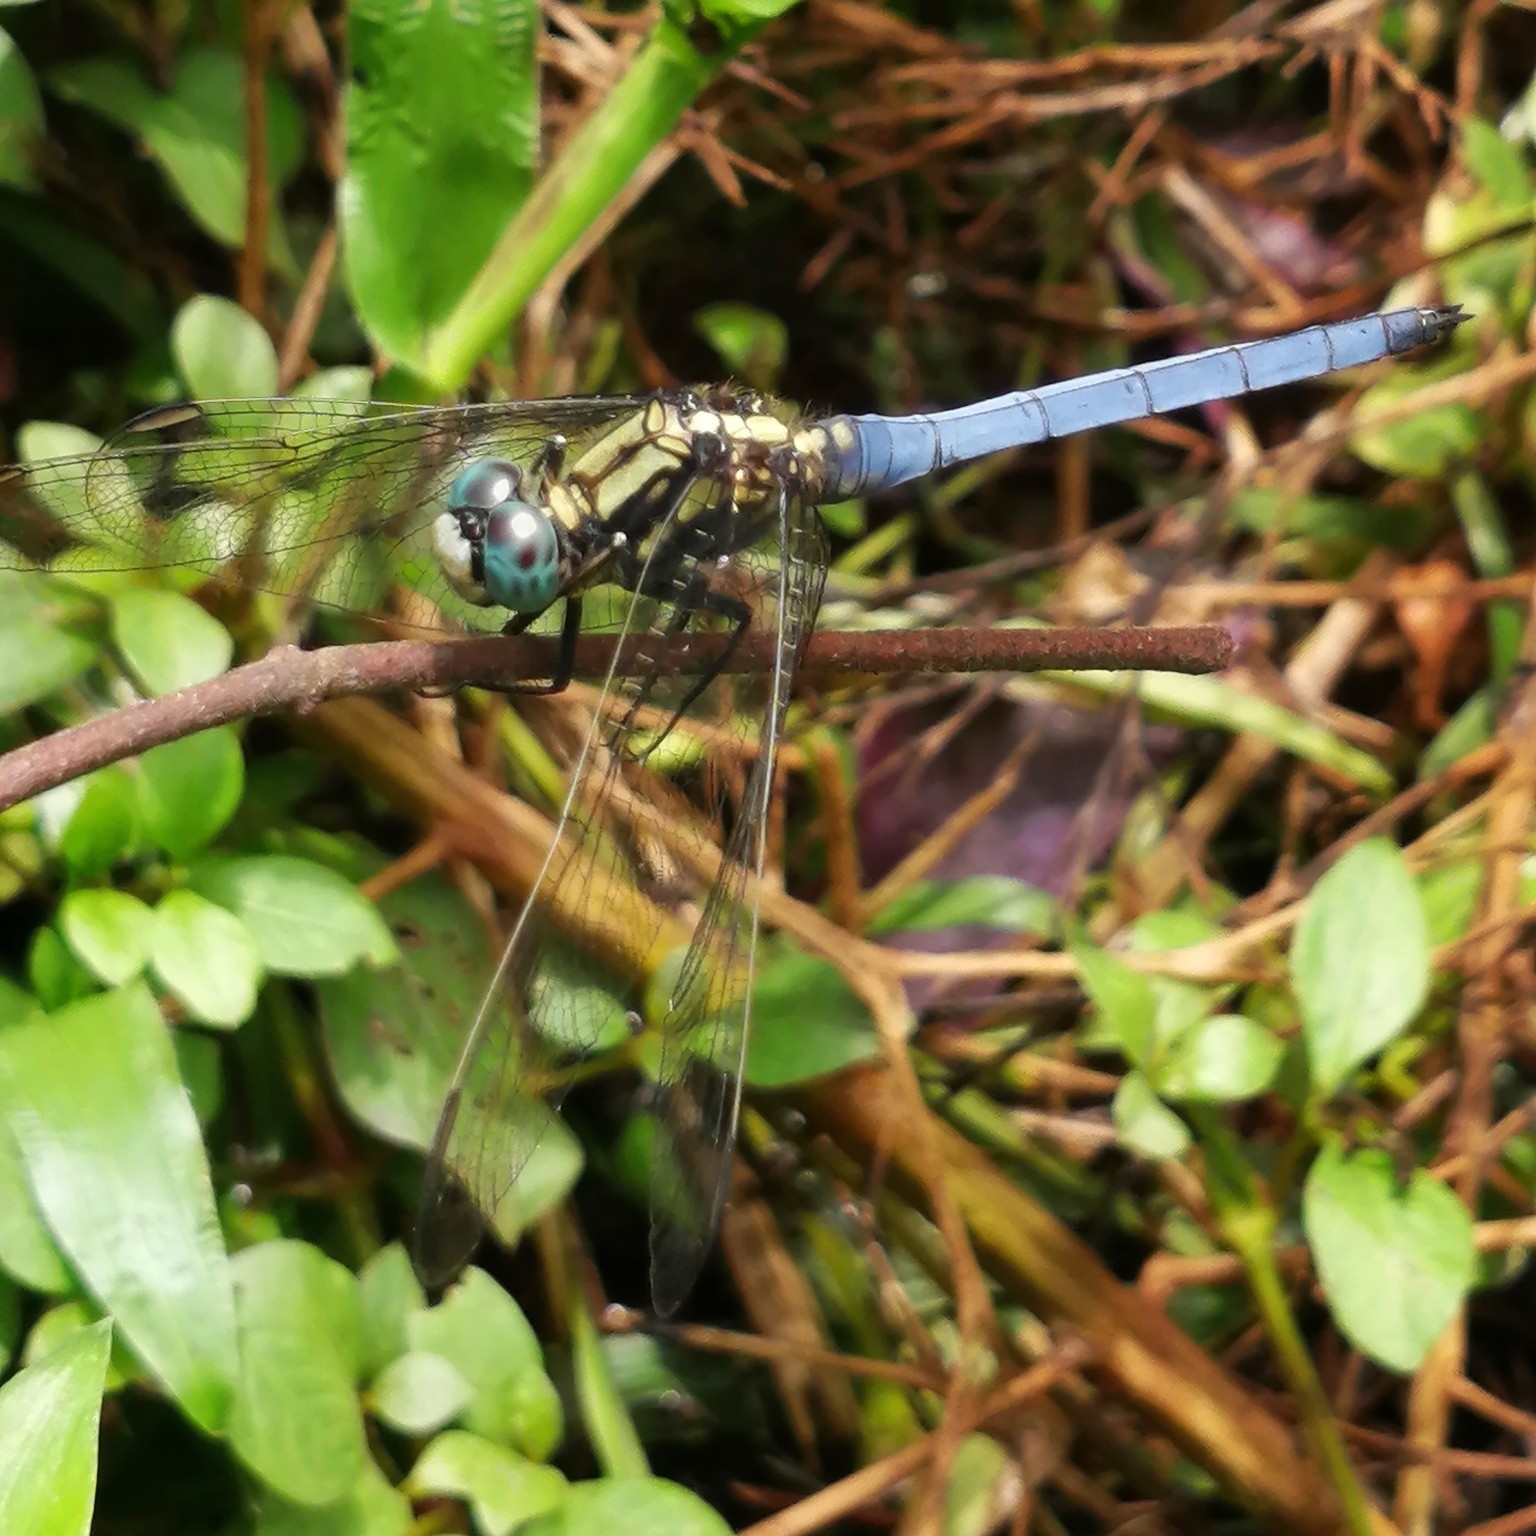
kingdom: Animalia
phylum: Arthropoda
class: Insecta
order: Odonata
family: Libellulidae
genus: Orthetrum
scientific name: Orthetrum luzonicum
